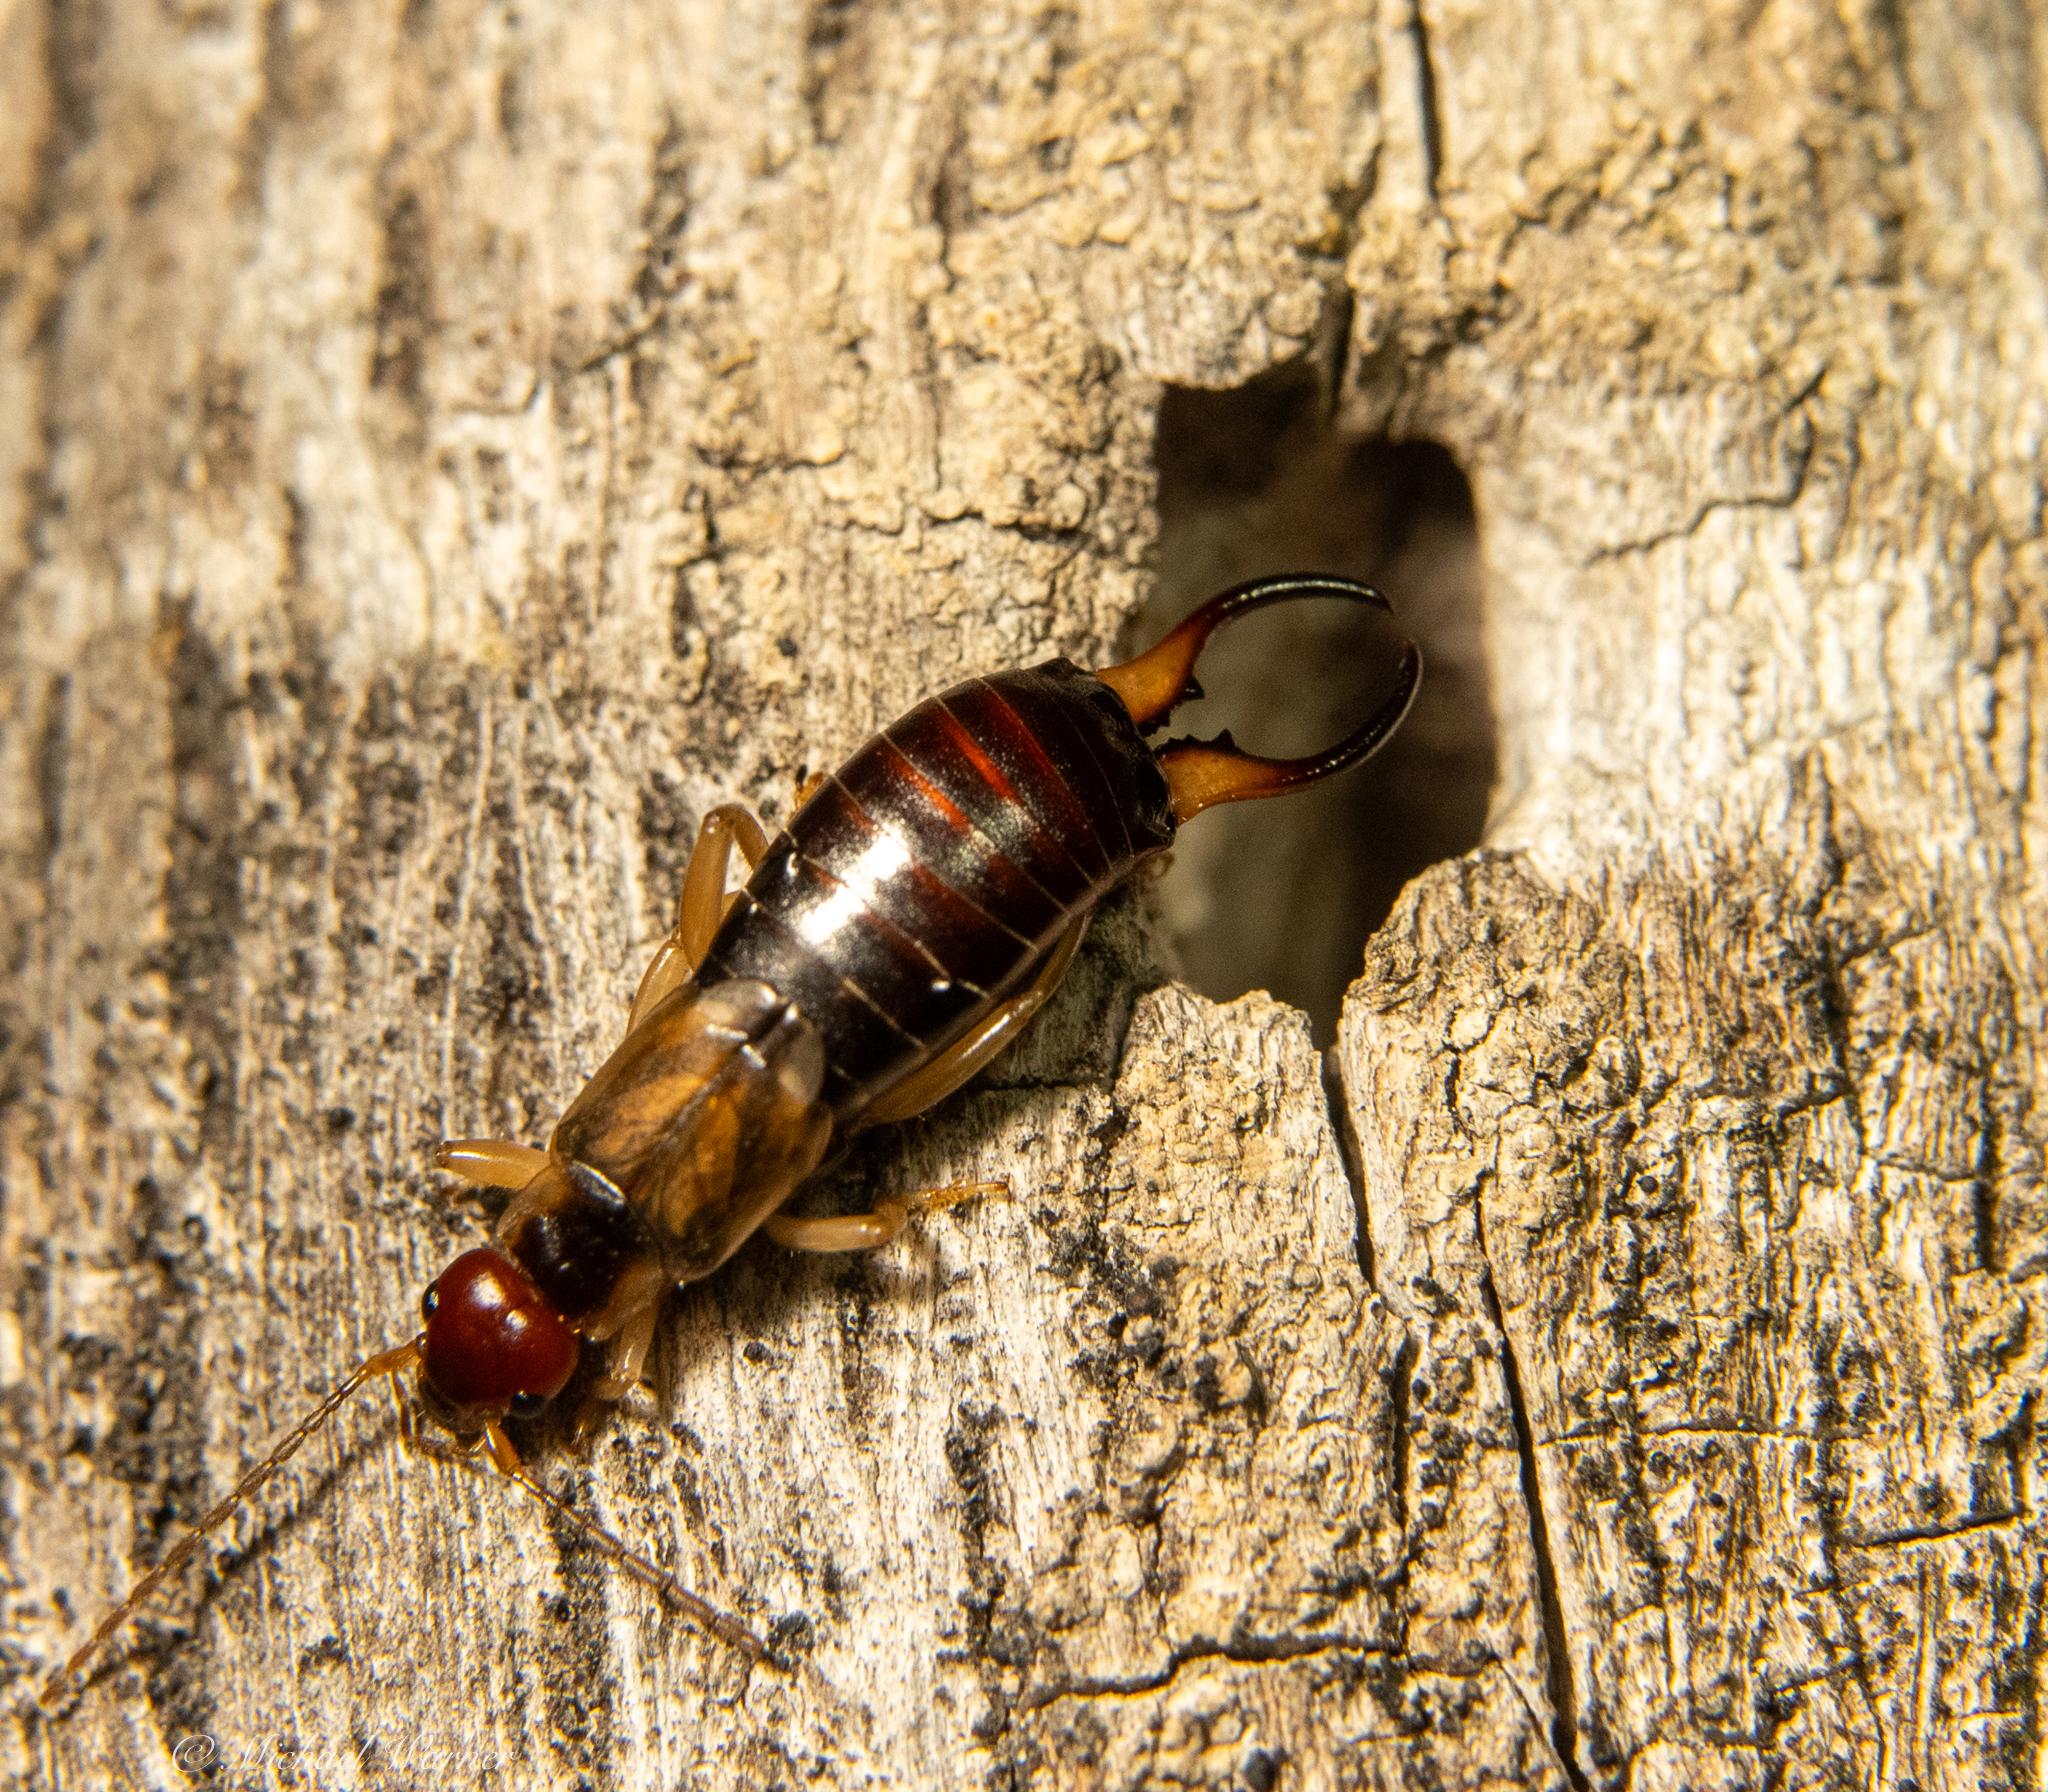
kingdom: Animalia
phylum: Arthropoda
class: Insecta
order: Dermaptera
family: Forficulidae
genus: Forficula
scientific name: Forficula dentata
